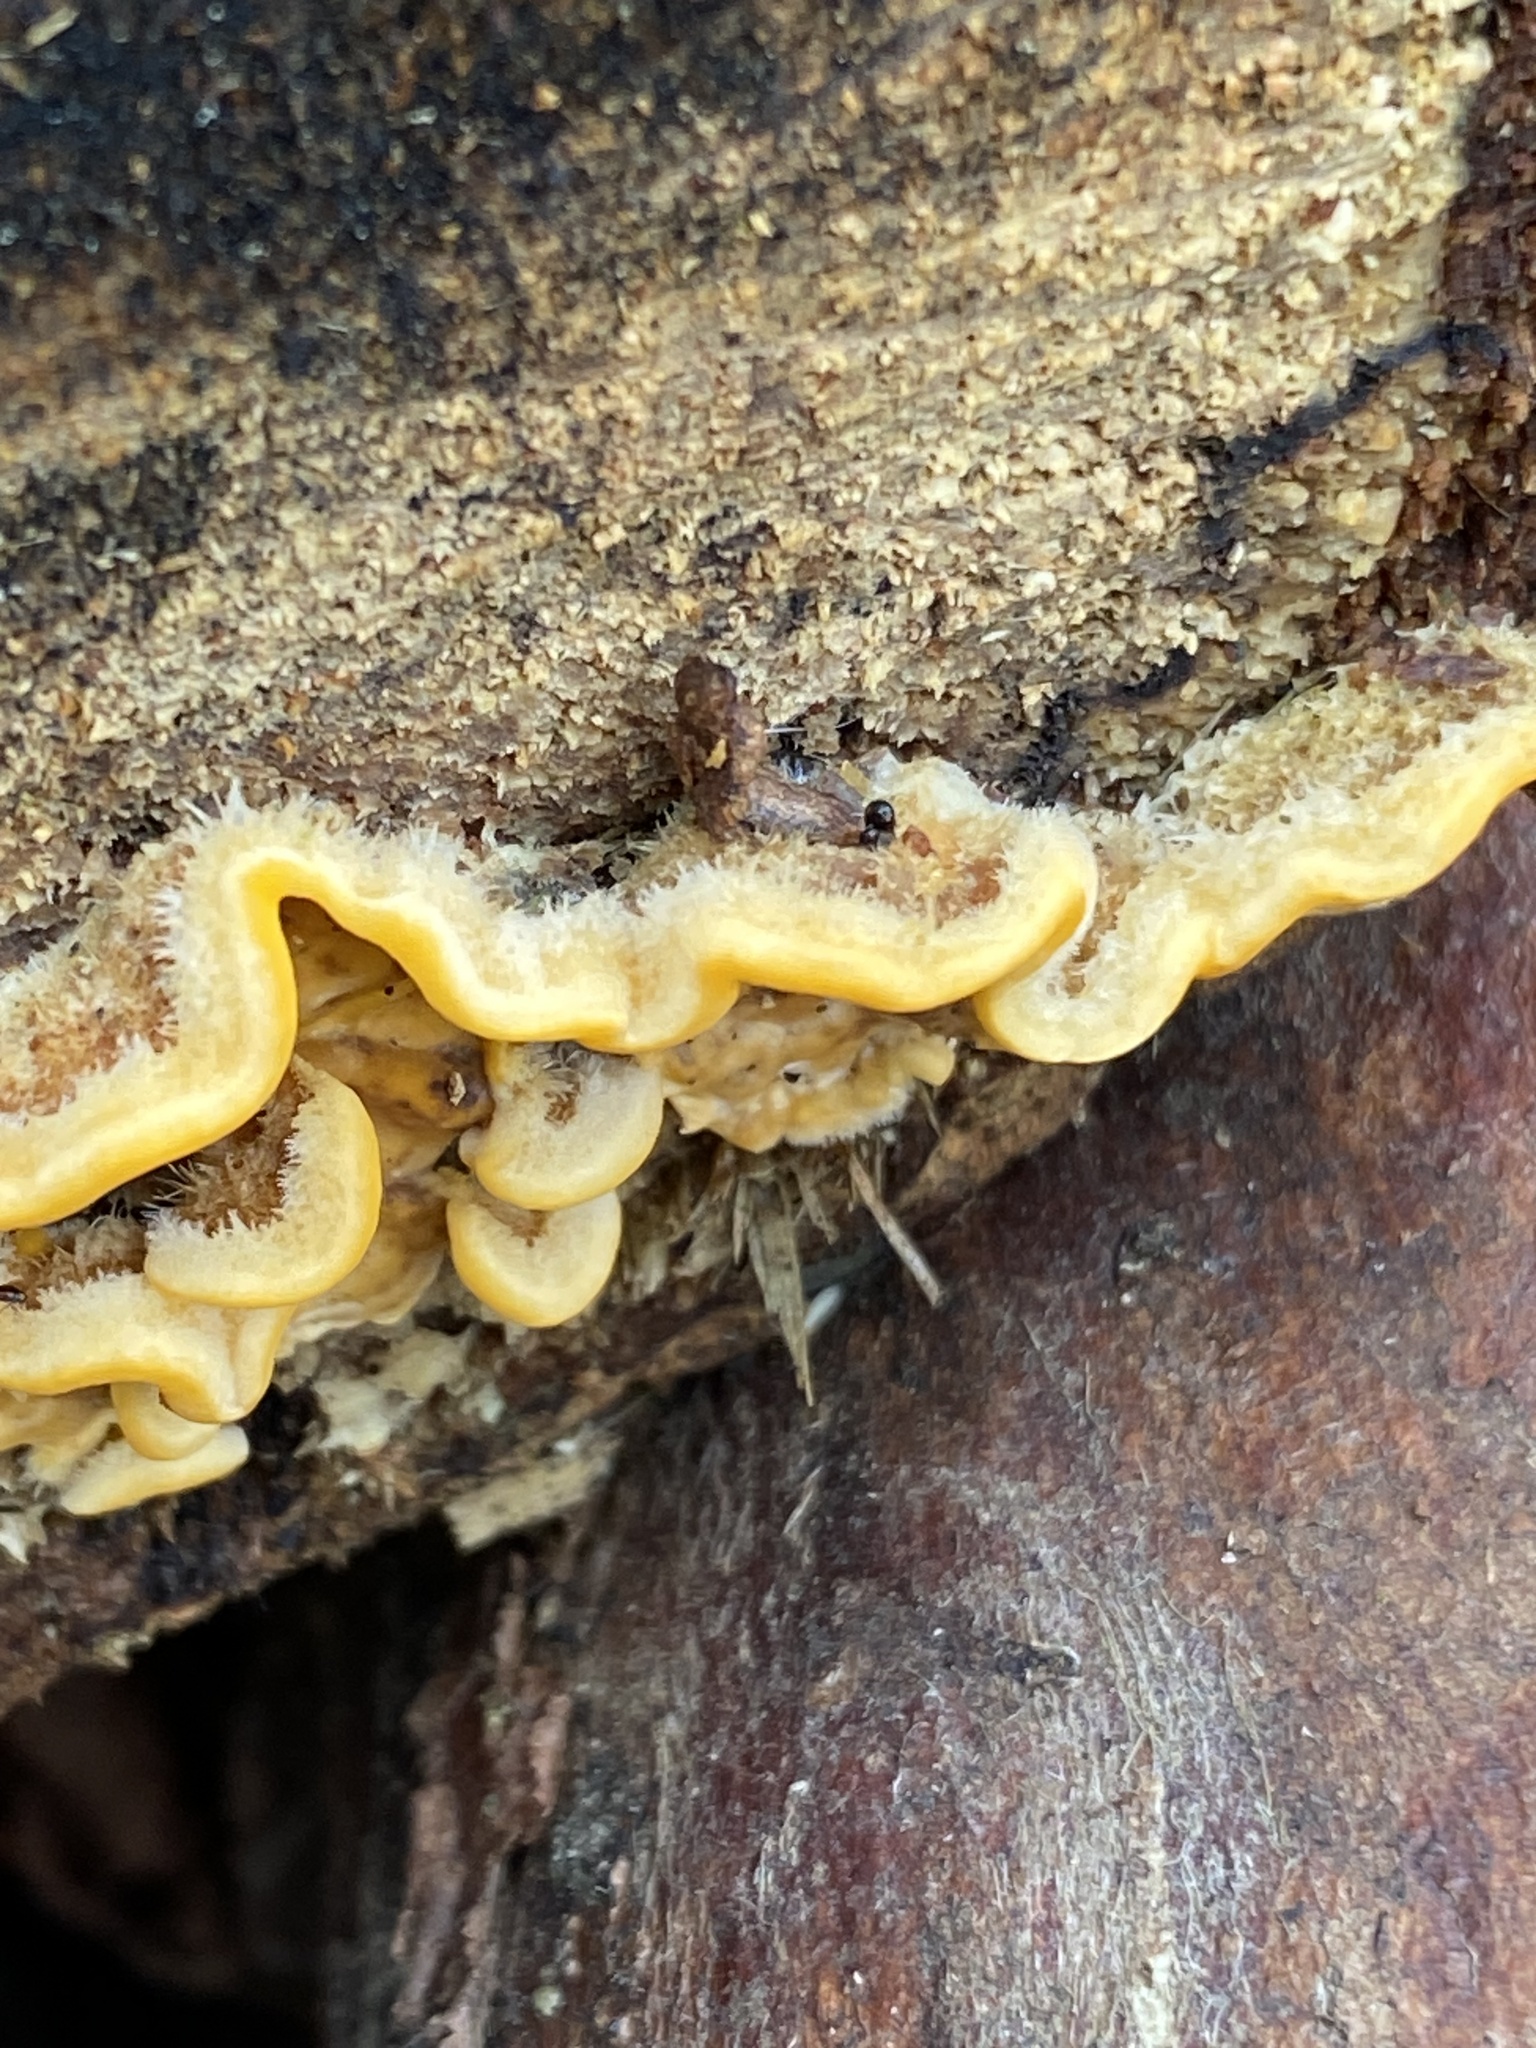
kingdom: Fungi
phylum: Basidiomycota
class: Agaricomycetes
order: Russulales
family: Stereaceae
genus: Stereum
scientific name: Stereum hirsutum
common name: Hairy curtain crust
